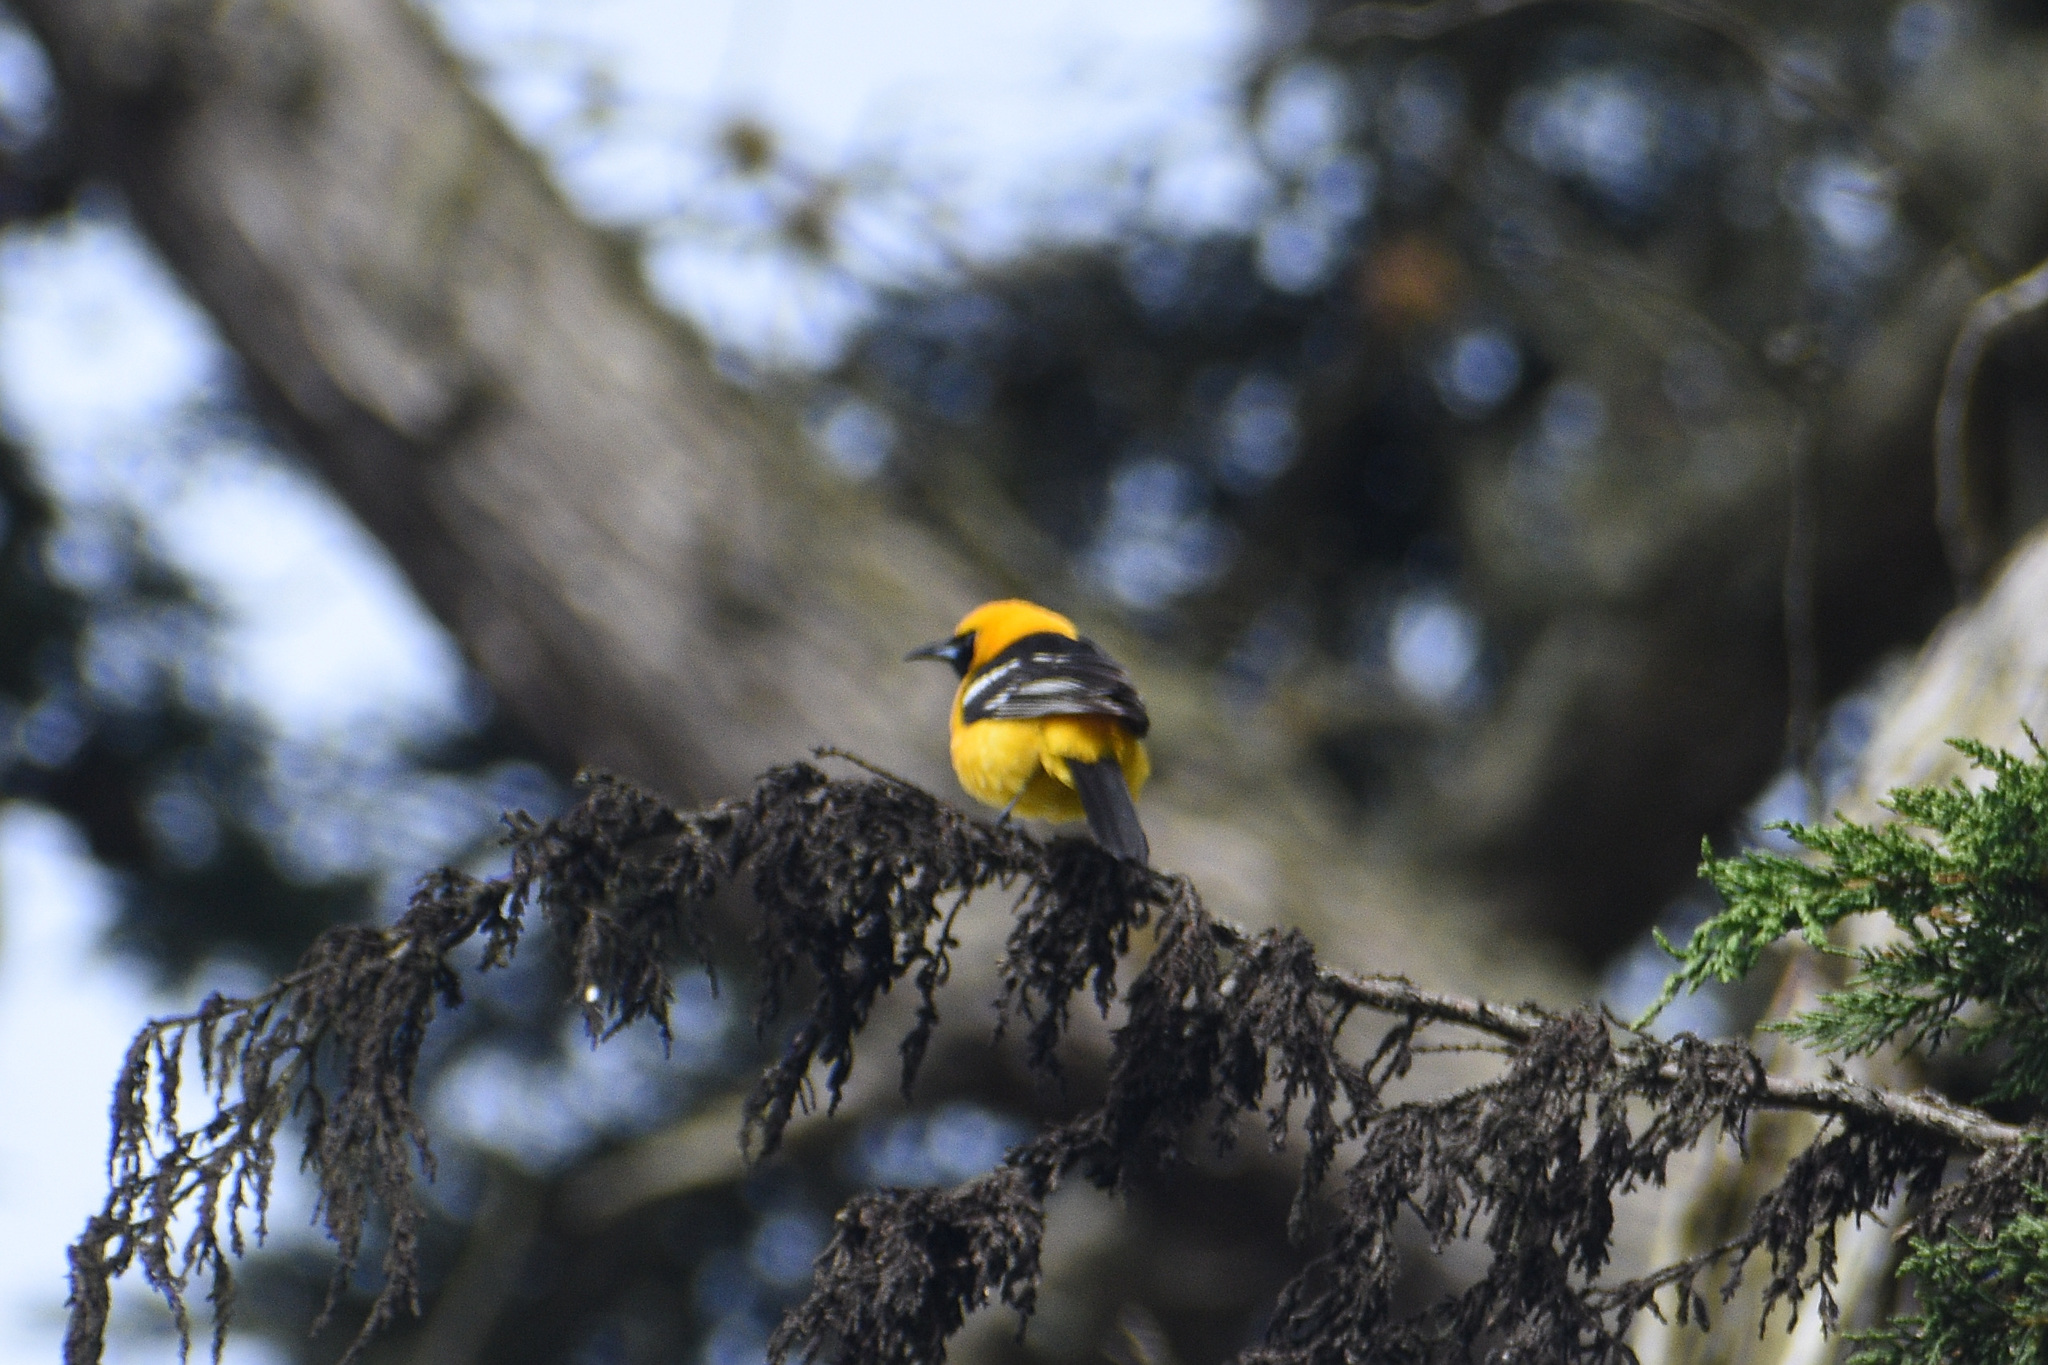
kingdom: Animalia
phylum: Chordata
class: Aves
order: Passeriformes
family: Icteridae
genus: Icterus
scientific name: Icterus cucullatus
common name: Hooded oriole
